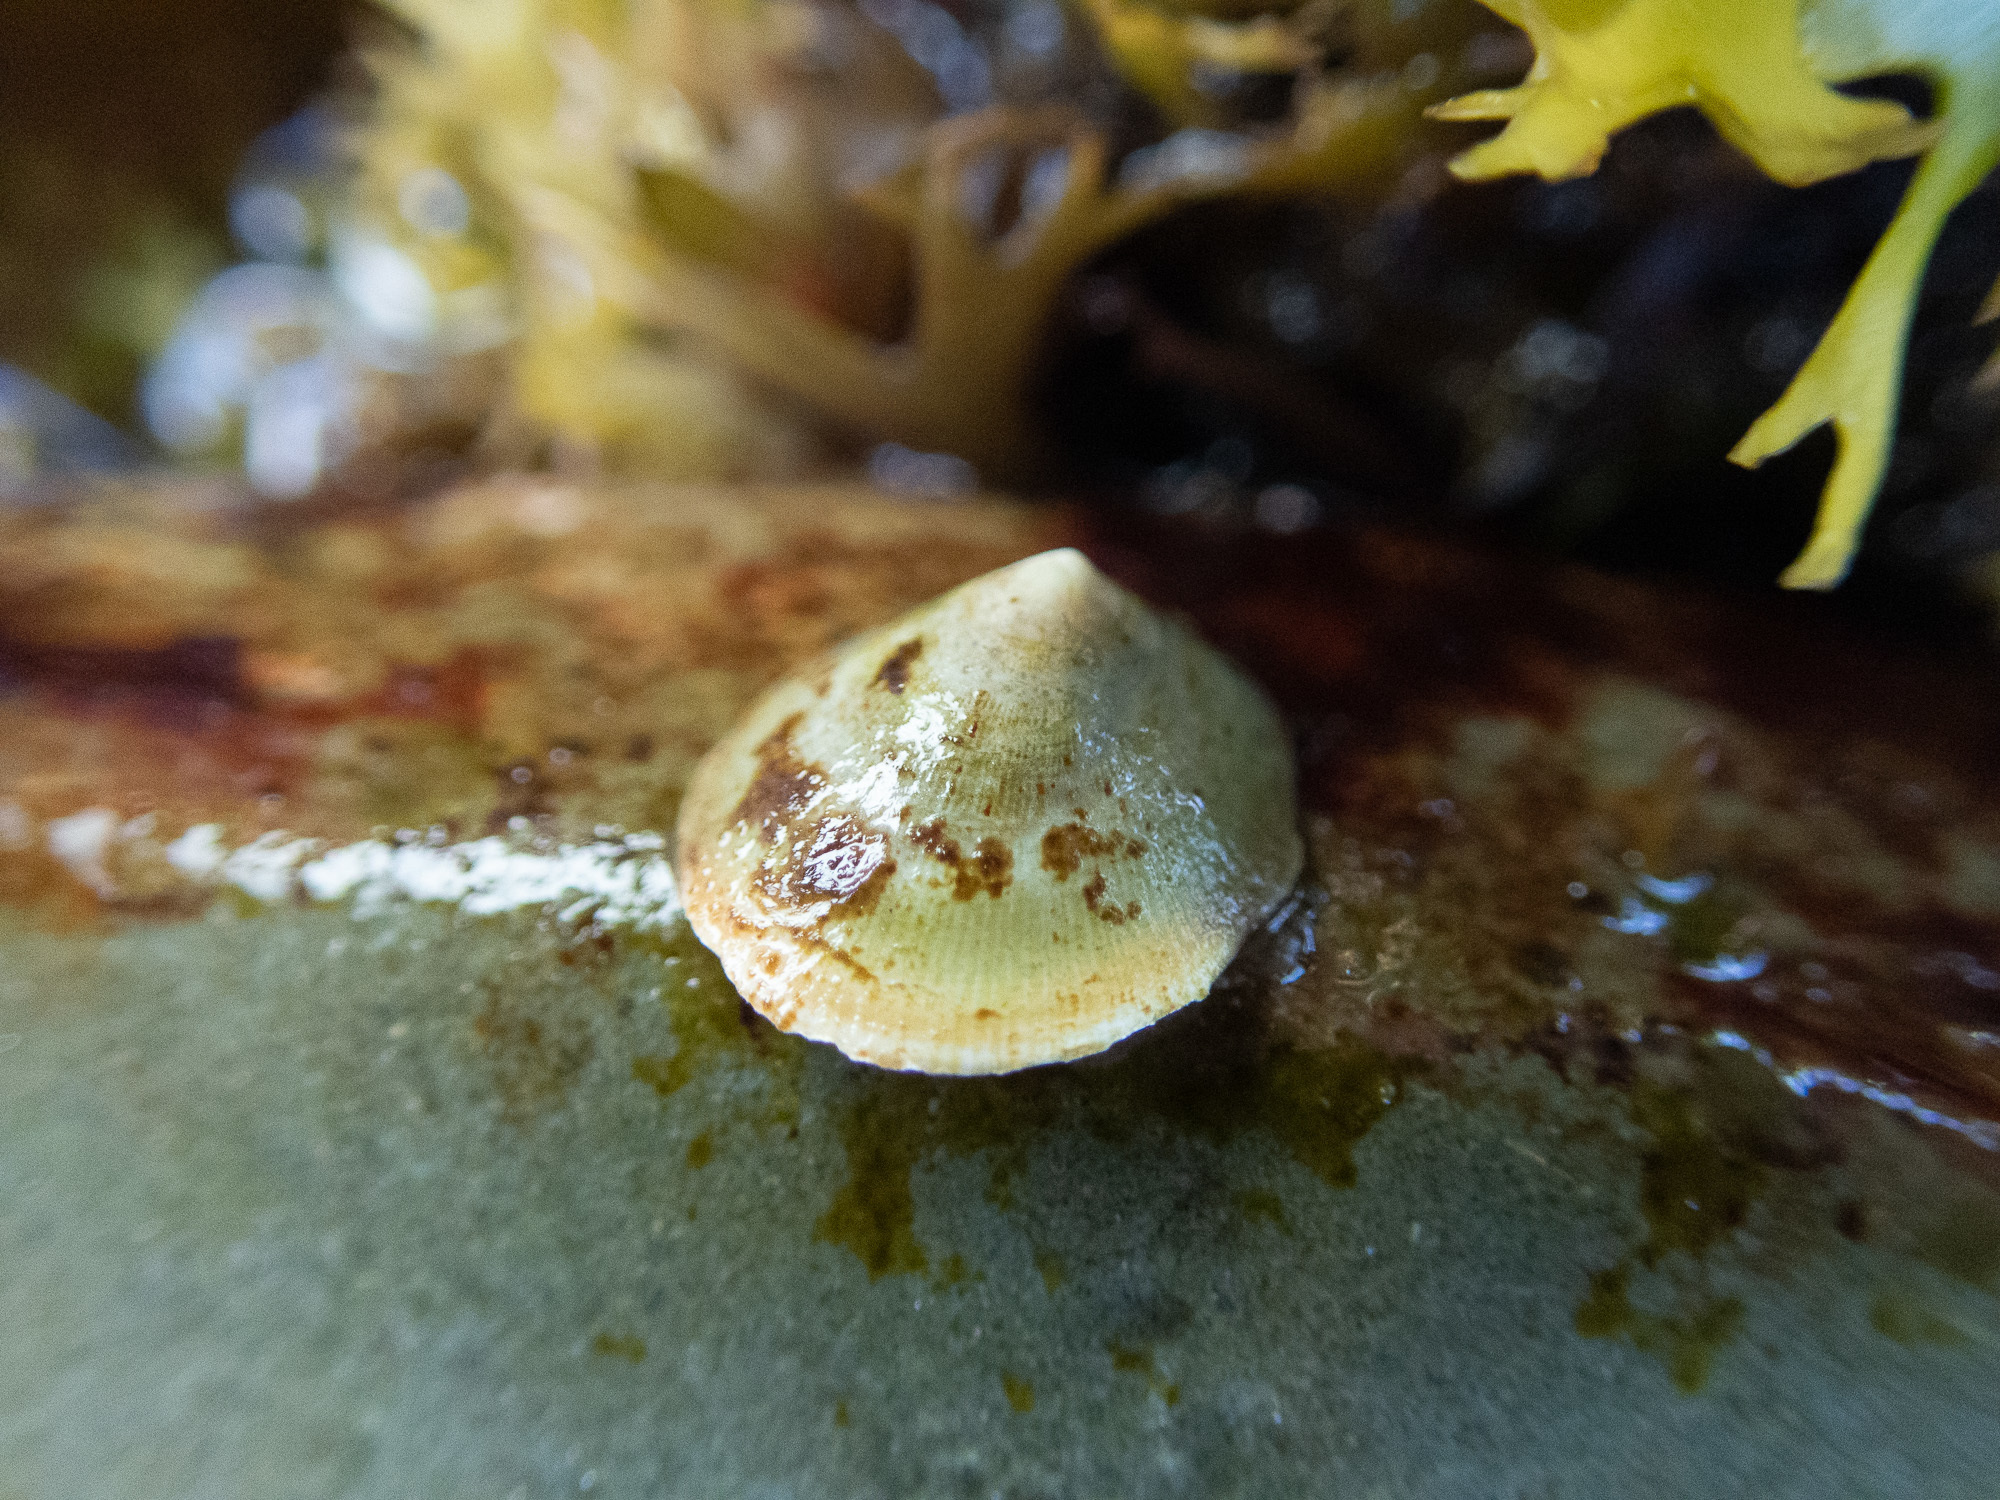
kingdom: Animalia
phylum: Mollusca
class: Gastropoda
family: Lottiidae
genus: Testudinalia
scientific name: Testudinalia testudinalis
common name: Common tortoiseshell limpet
